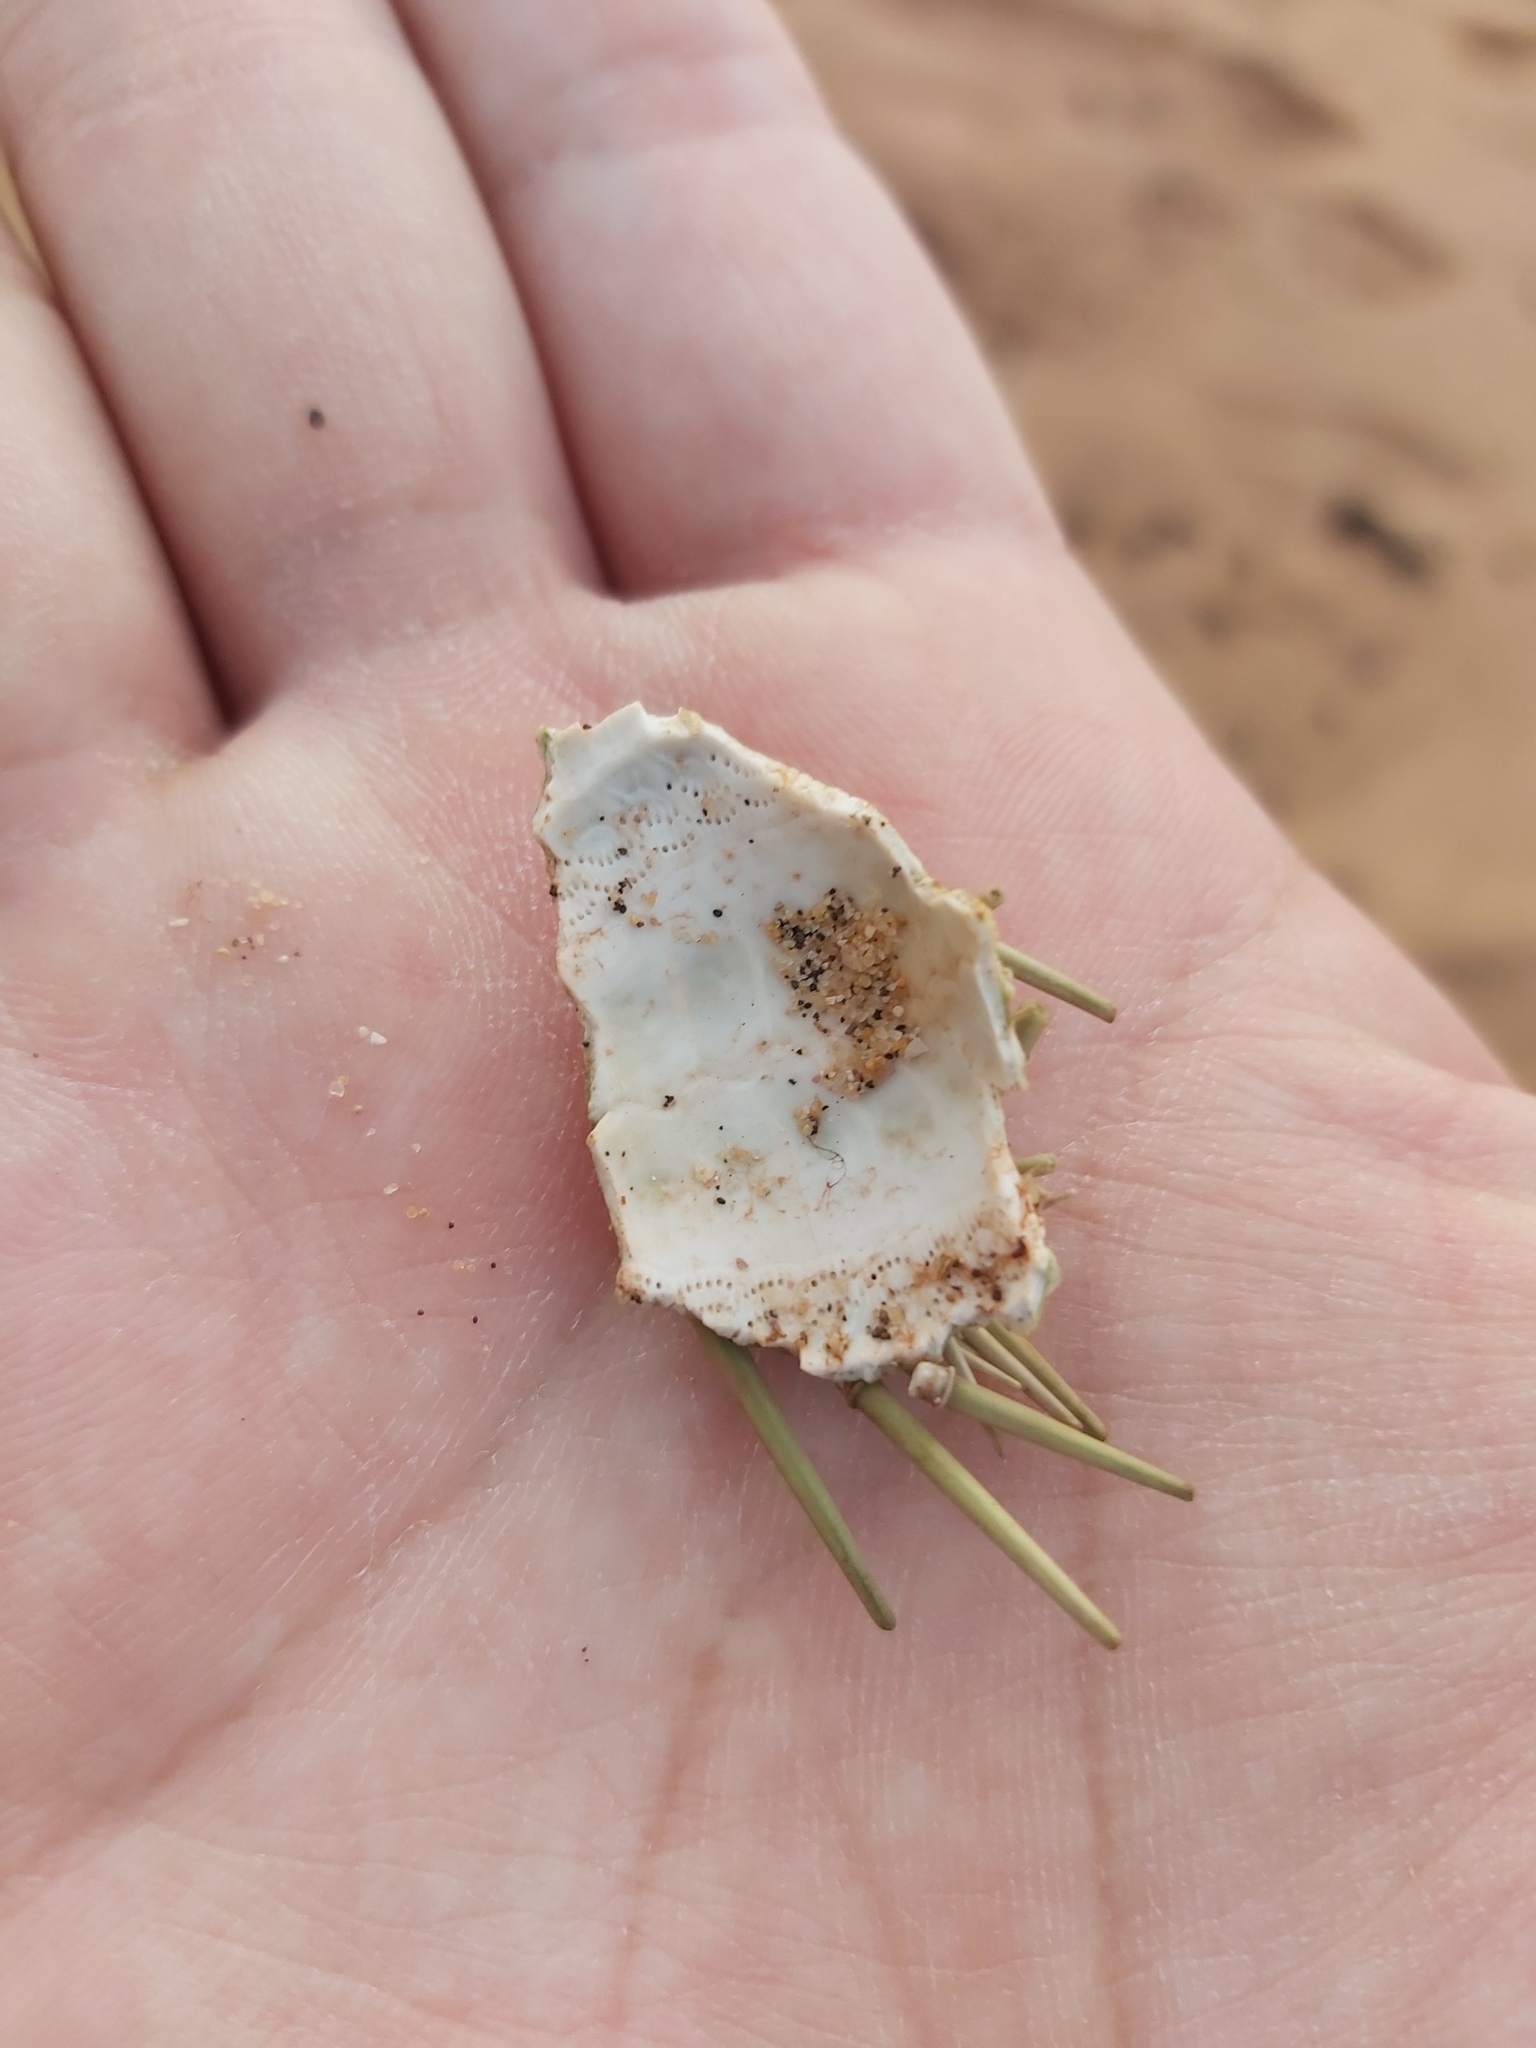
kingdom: Animalia
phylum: Echinodermata
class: Echinoidea
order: Camarodonta
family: Echinometridae
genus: Heliocidaris
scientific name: Heliocidaris erythrogramma
